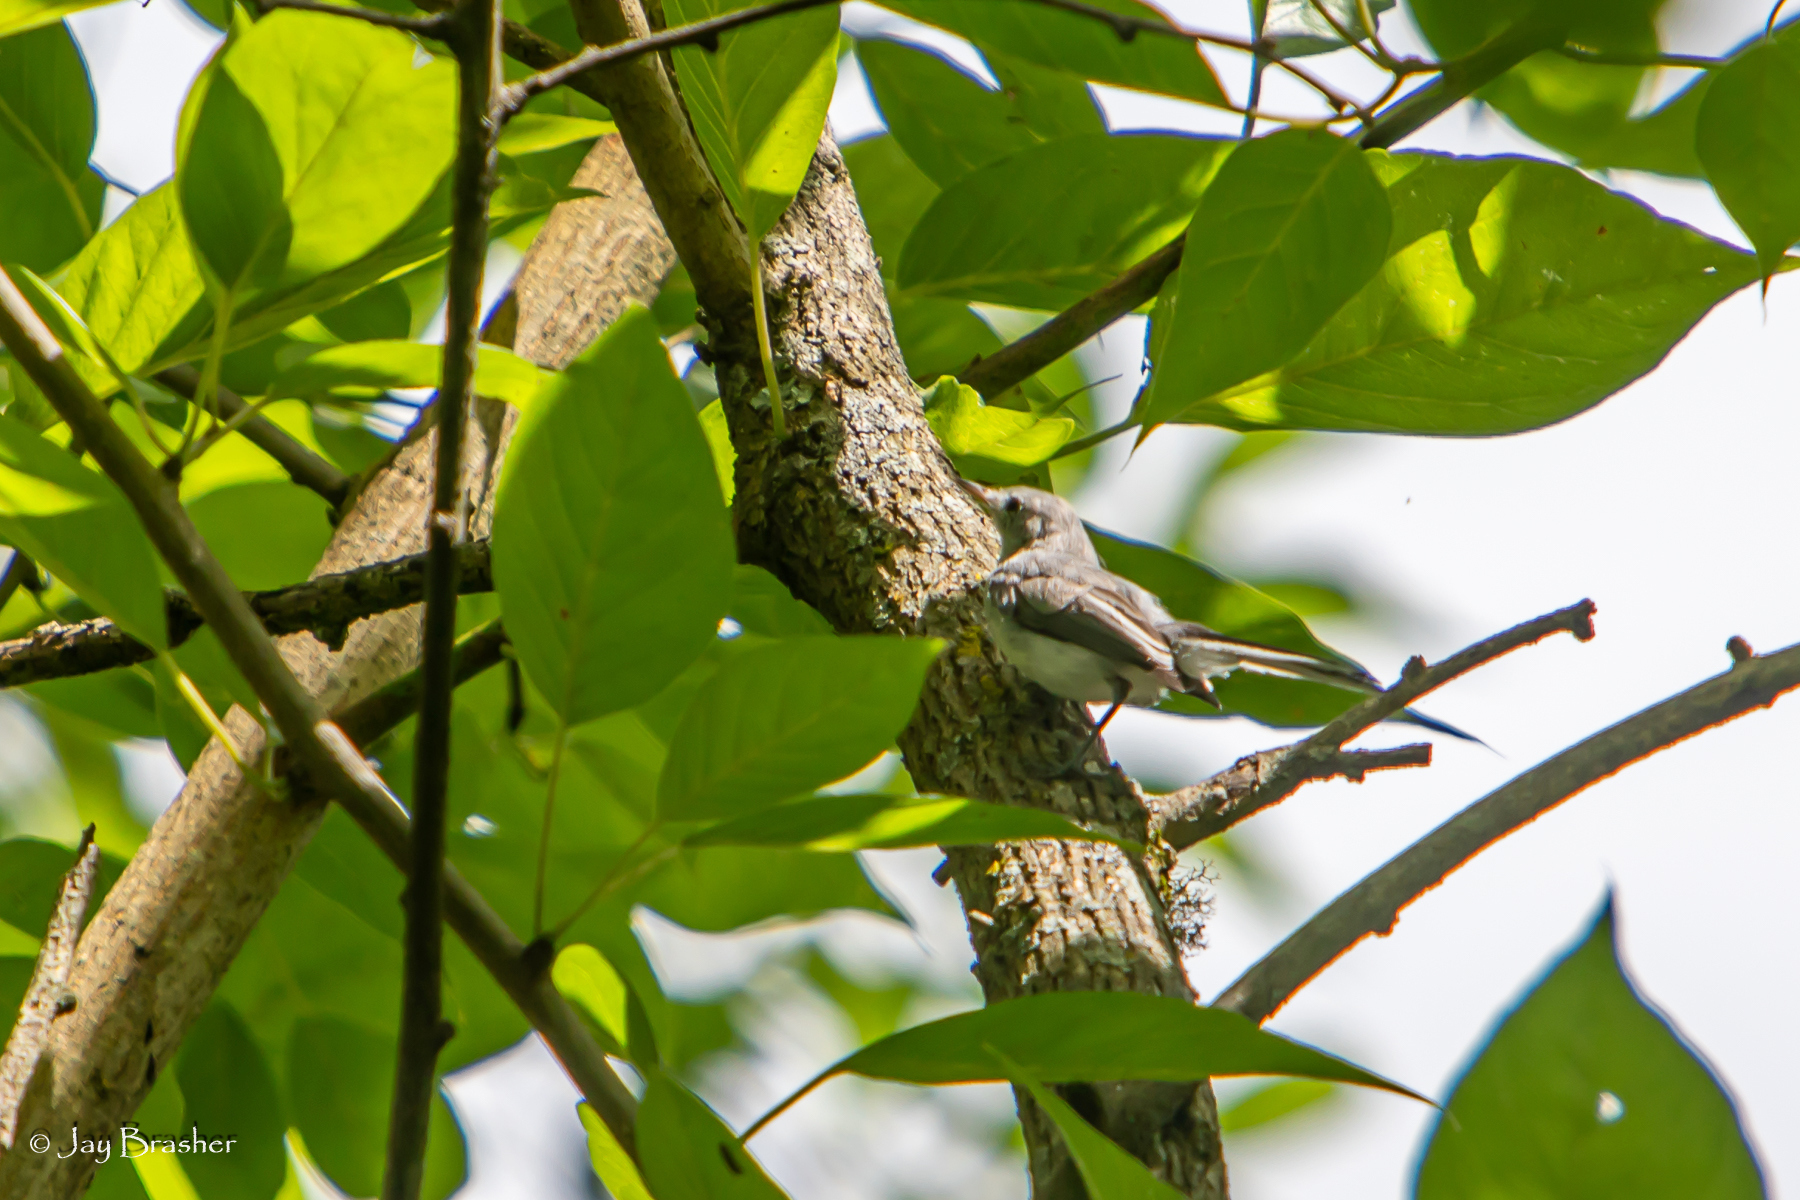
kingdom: Animalia
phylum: Chordata
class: Aves
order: Passeriformes
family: Polioptilidae
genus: Polioptila
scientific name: Polioptila caerulea
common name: Blue-gray gnatcatcher
